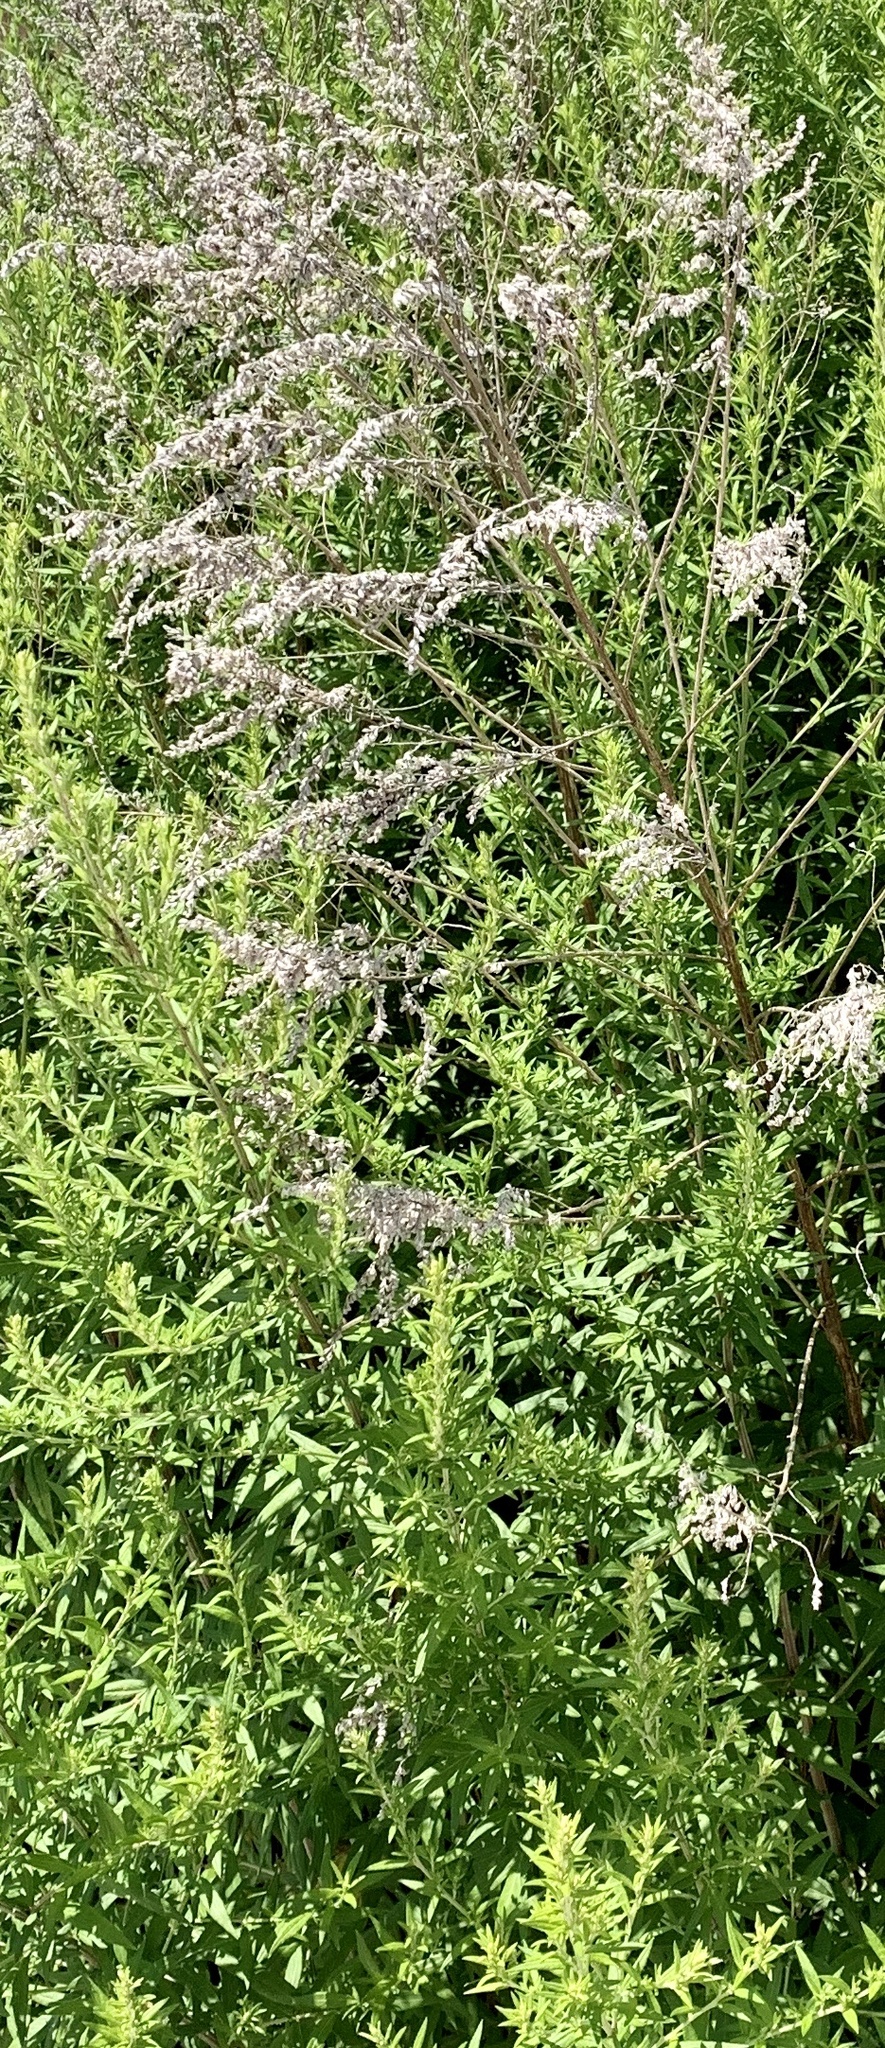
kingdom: Plantae
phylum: Tracheophyta
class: Magnoliopsida
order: Asterales
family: Asteraceae
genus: Artemisia
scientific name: Artemisia vulgaris
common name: Mugwort
